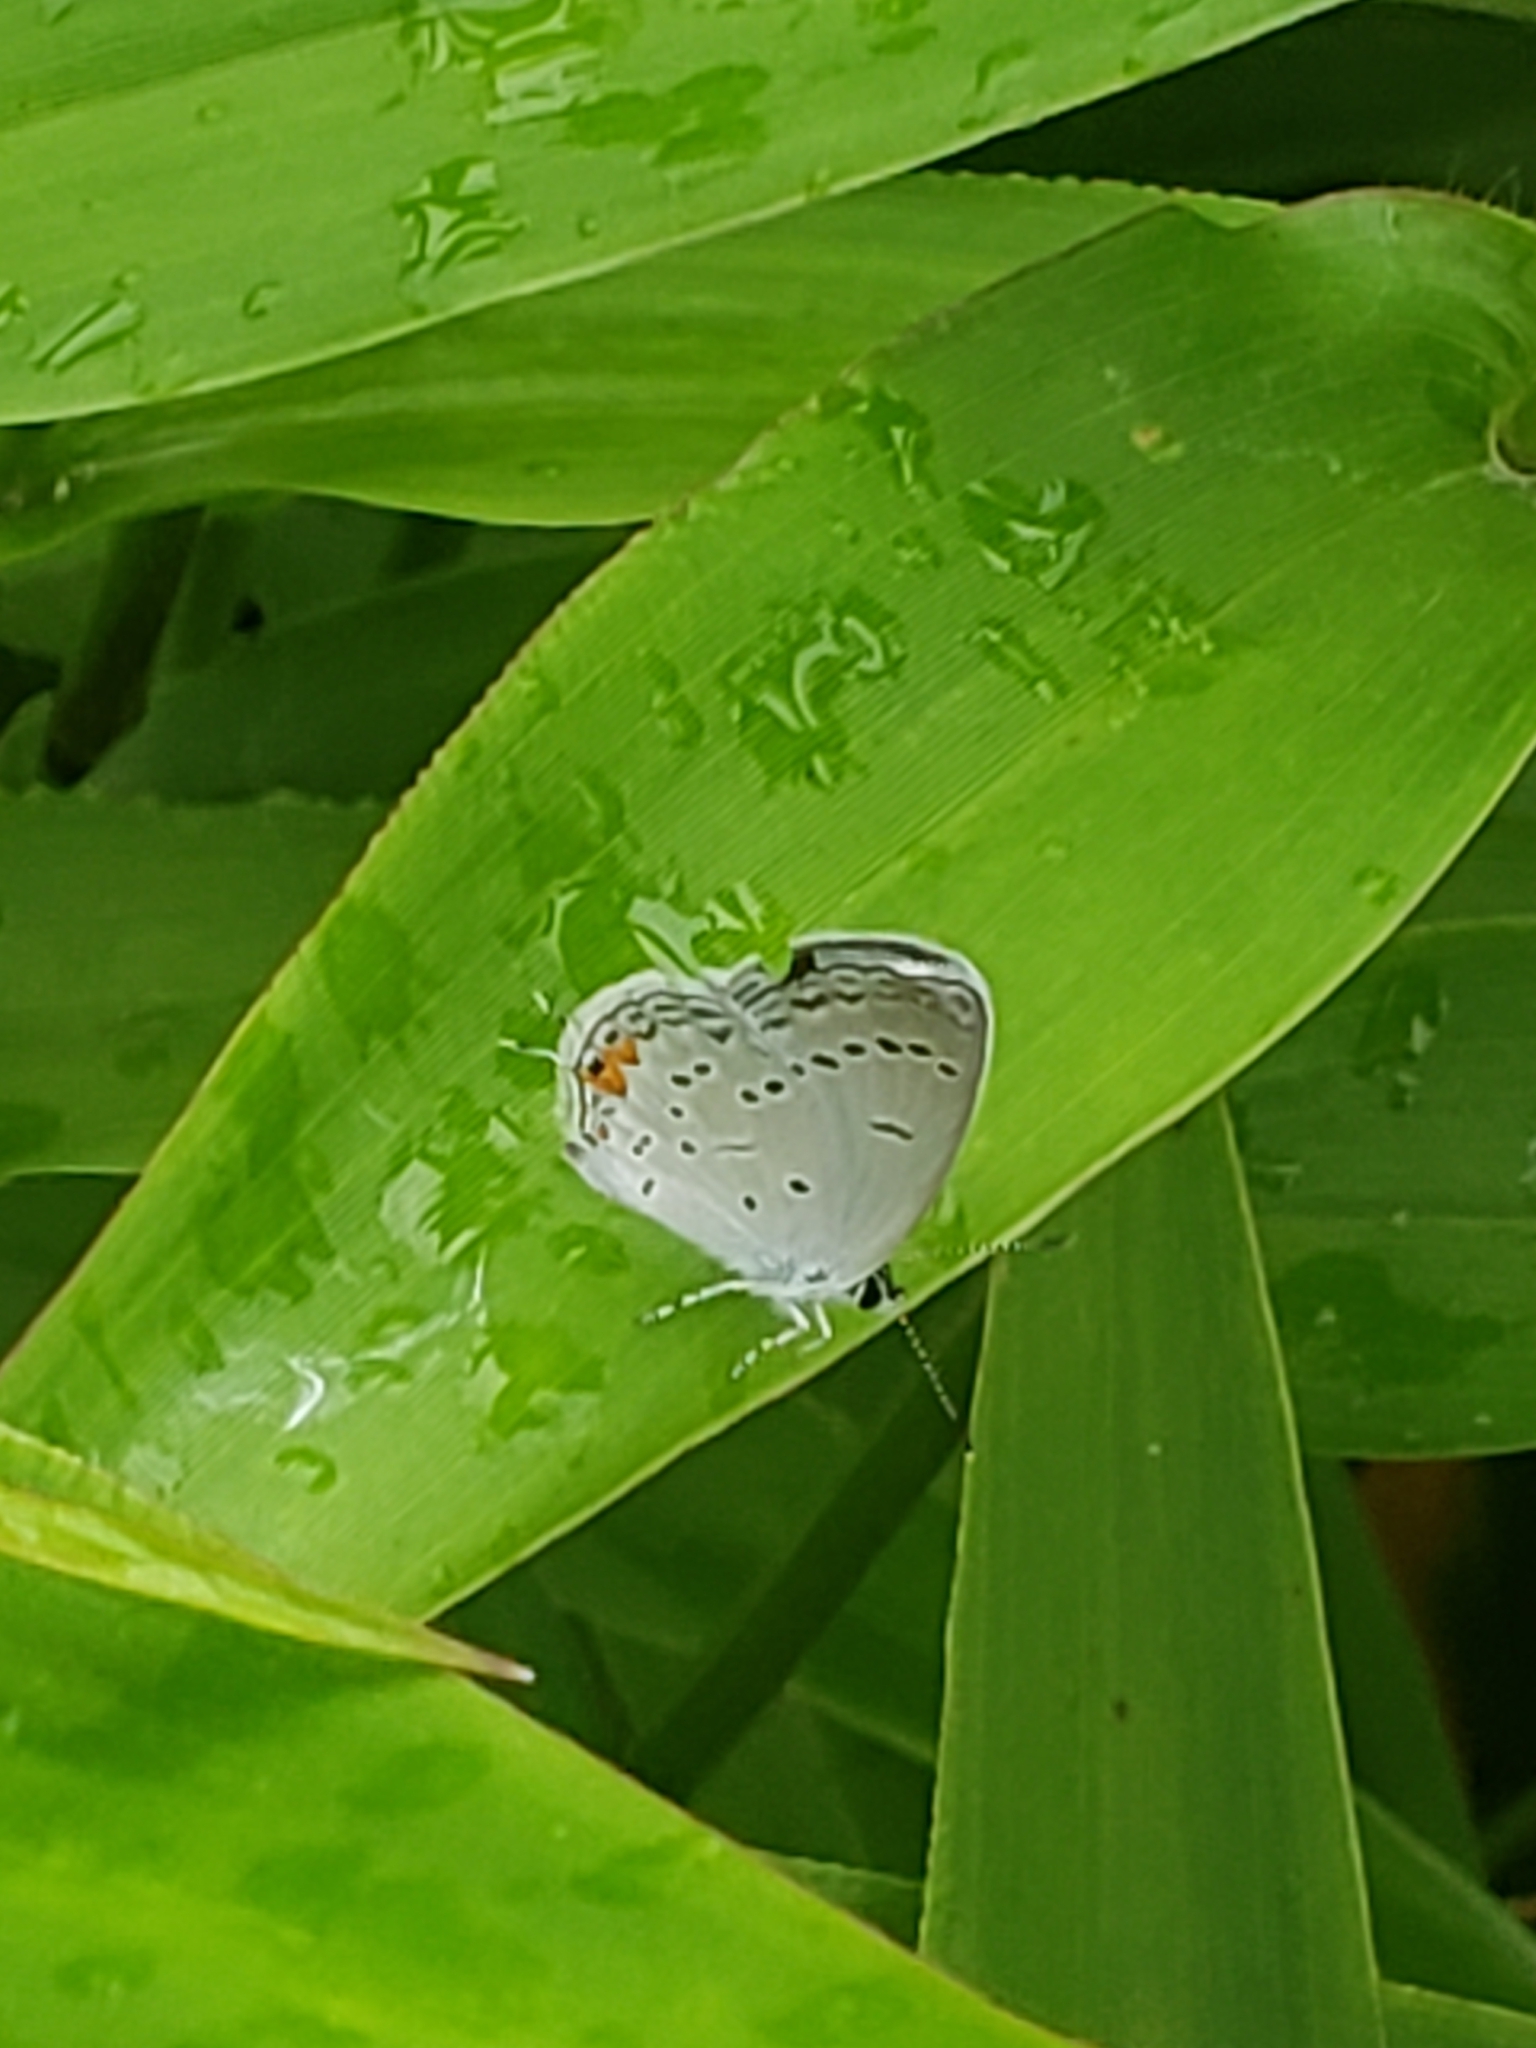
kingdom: Animalia
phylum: Arthropoda
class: Insecta
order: Lepidoptera
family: Lycaenidae
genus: Elkalyce
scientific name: Elkalyce comyntas
